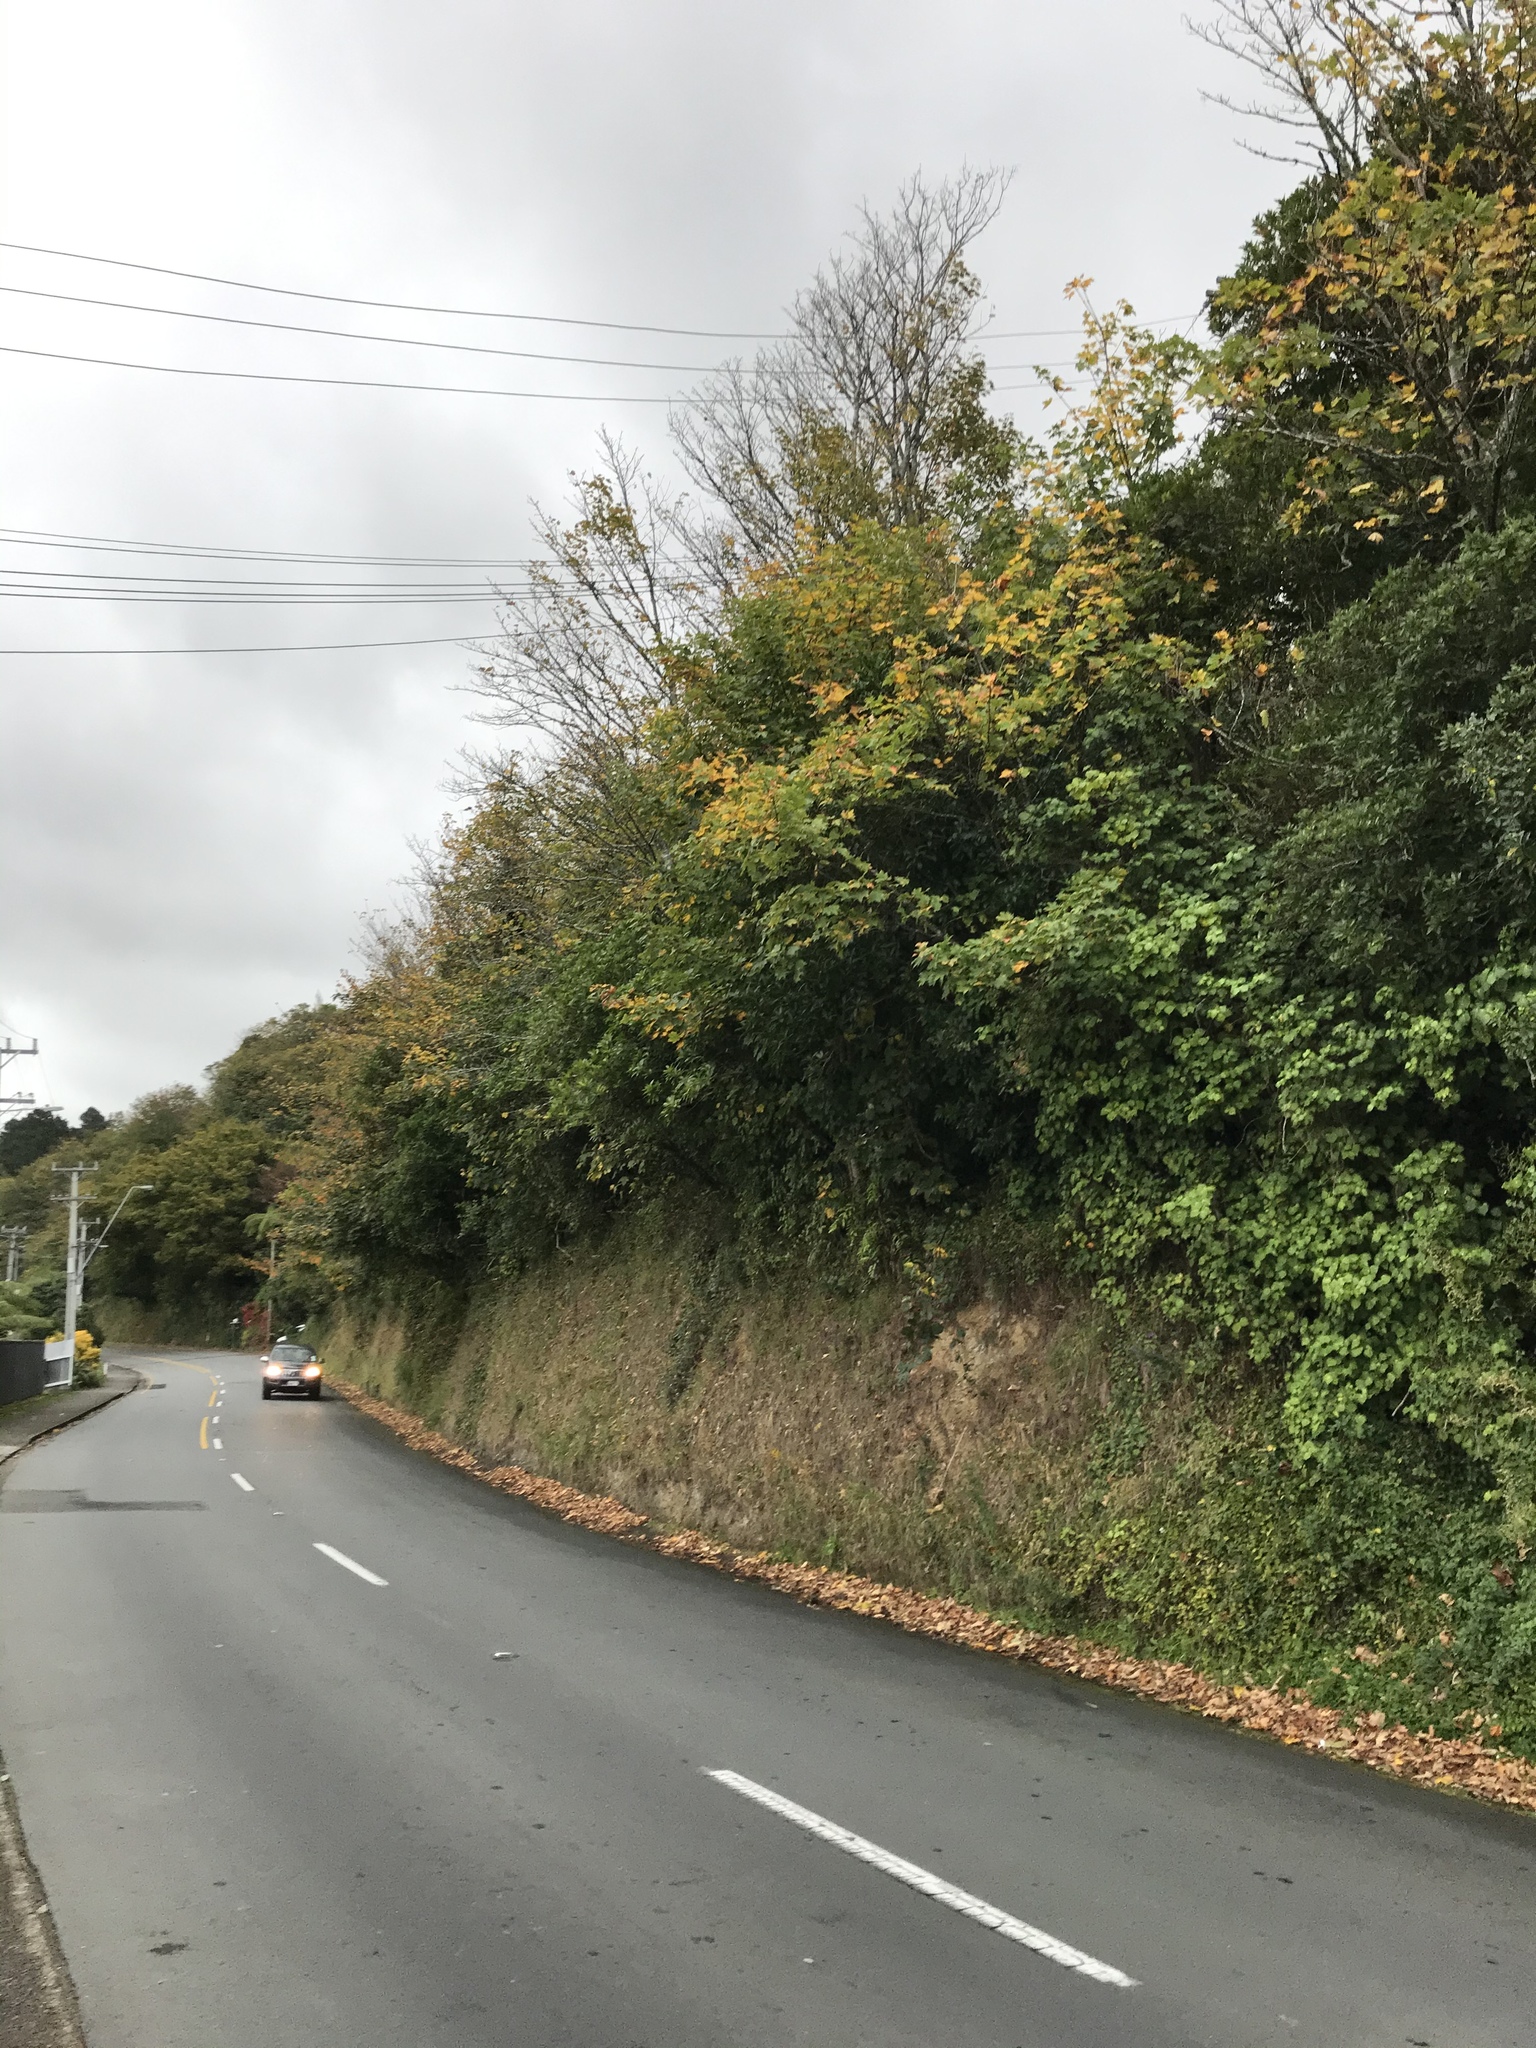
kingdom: Plantae
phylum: Tracheophyta
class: Magnoliopsida
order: Sapindales
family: Sapindaceae
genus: Acer
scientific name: Acer pseudoplatanus
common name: Sycamore
